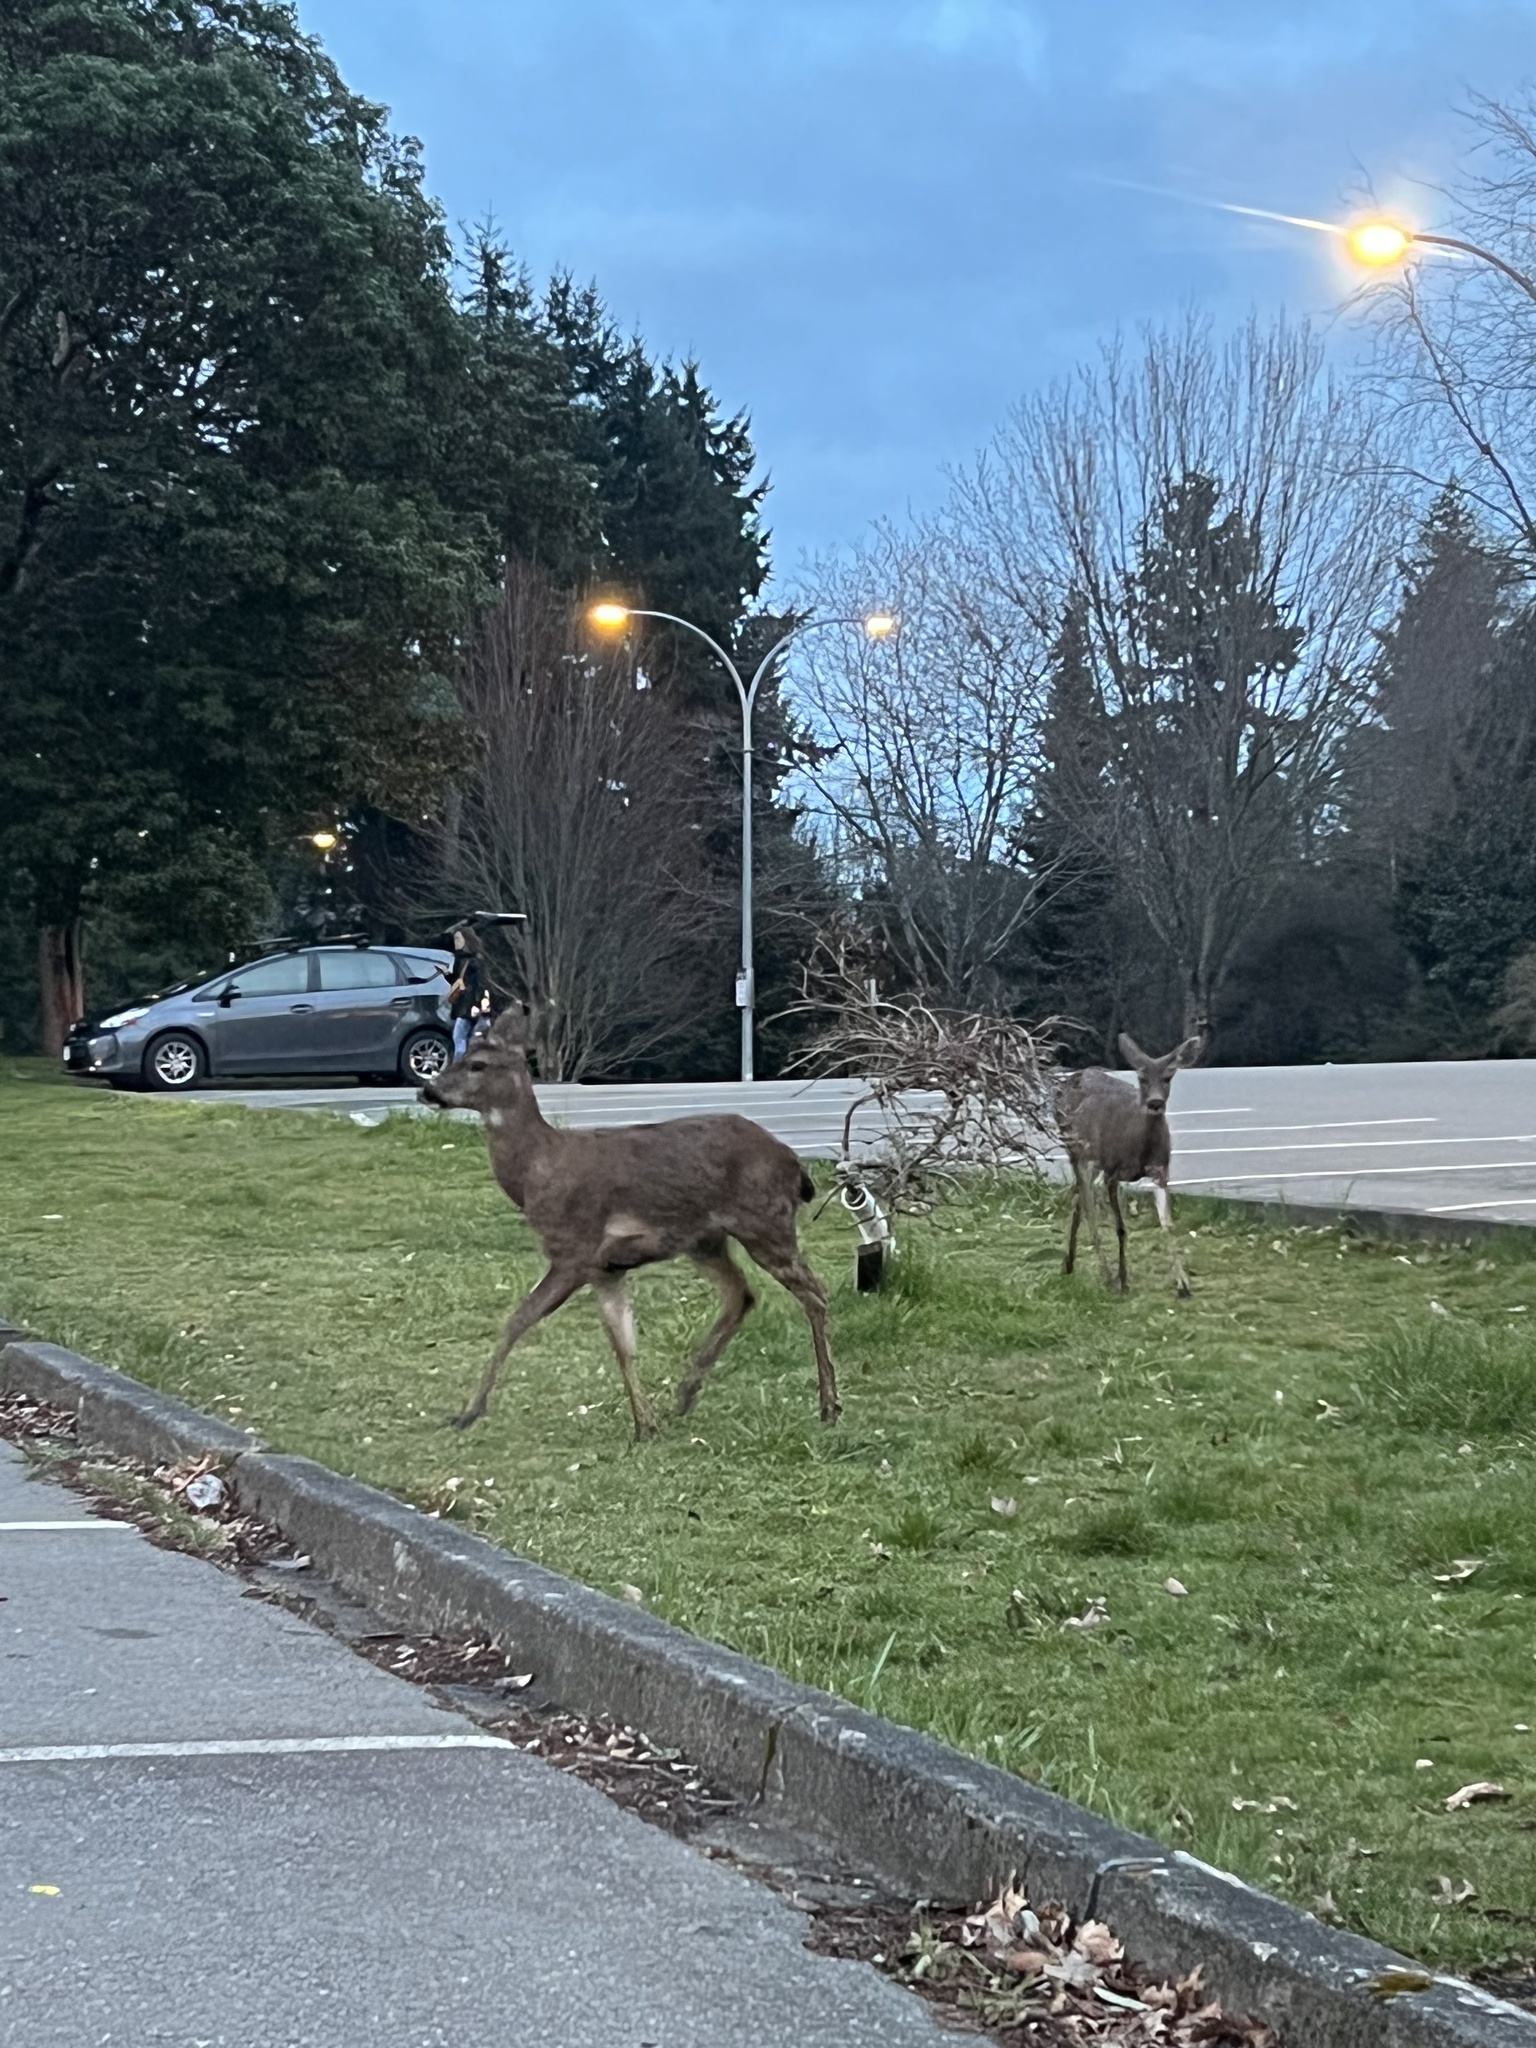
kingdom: Animalia
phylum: Chordata
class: Mammalia
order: Artiodactyla
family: Cervidae
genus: Odocoileus
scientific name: Odocoileus hemionus
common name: Mule deer
